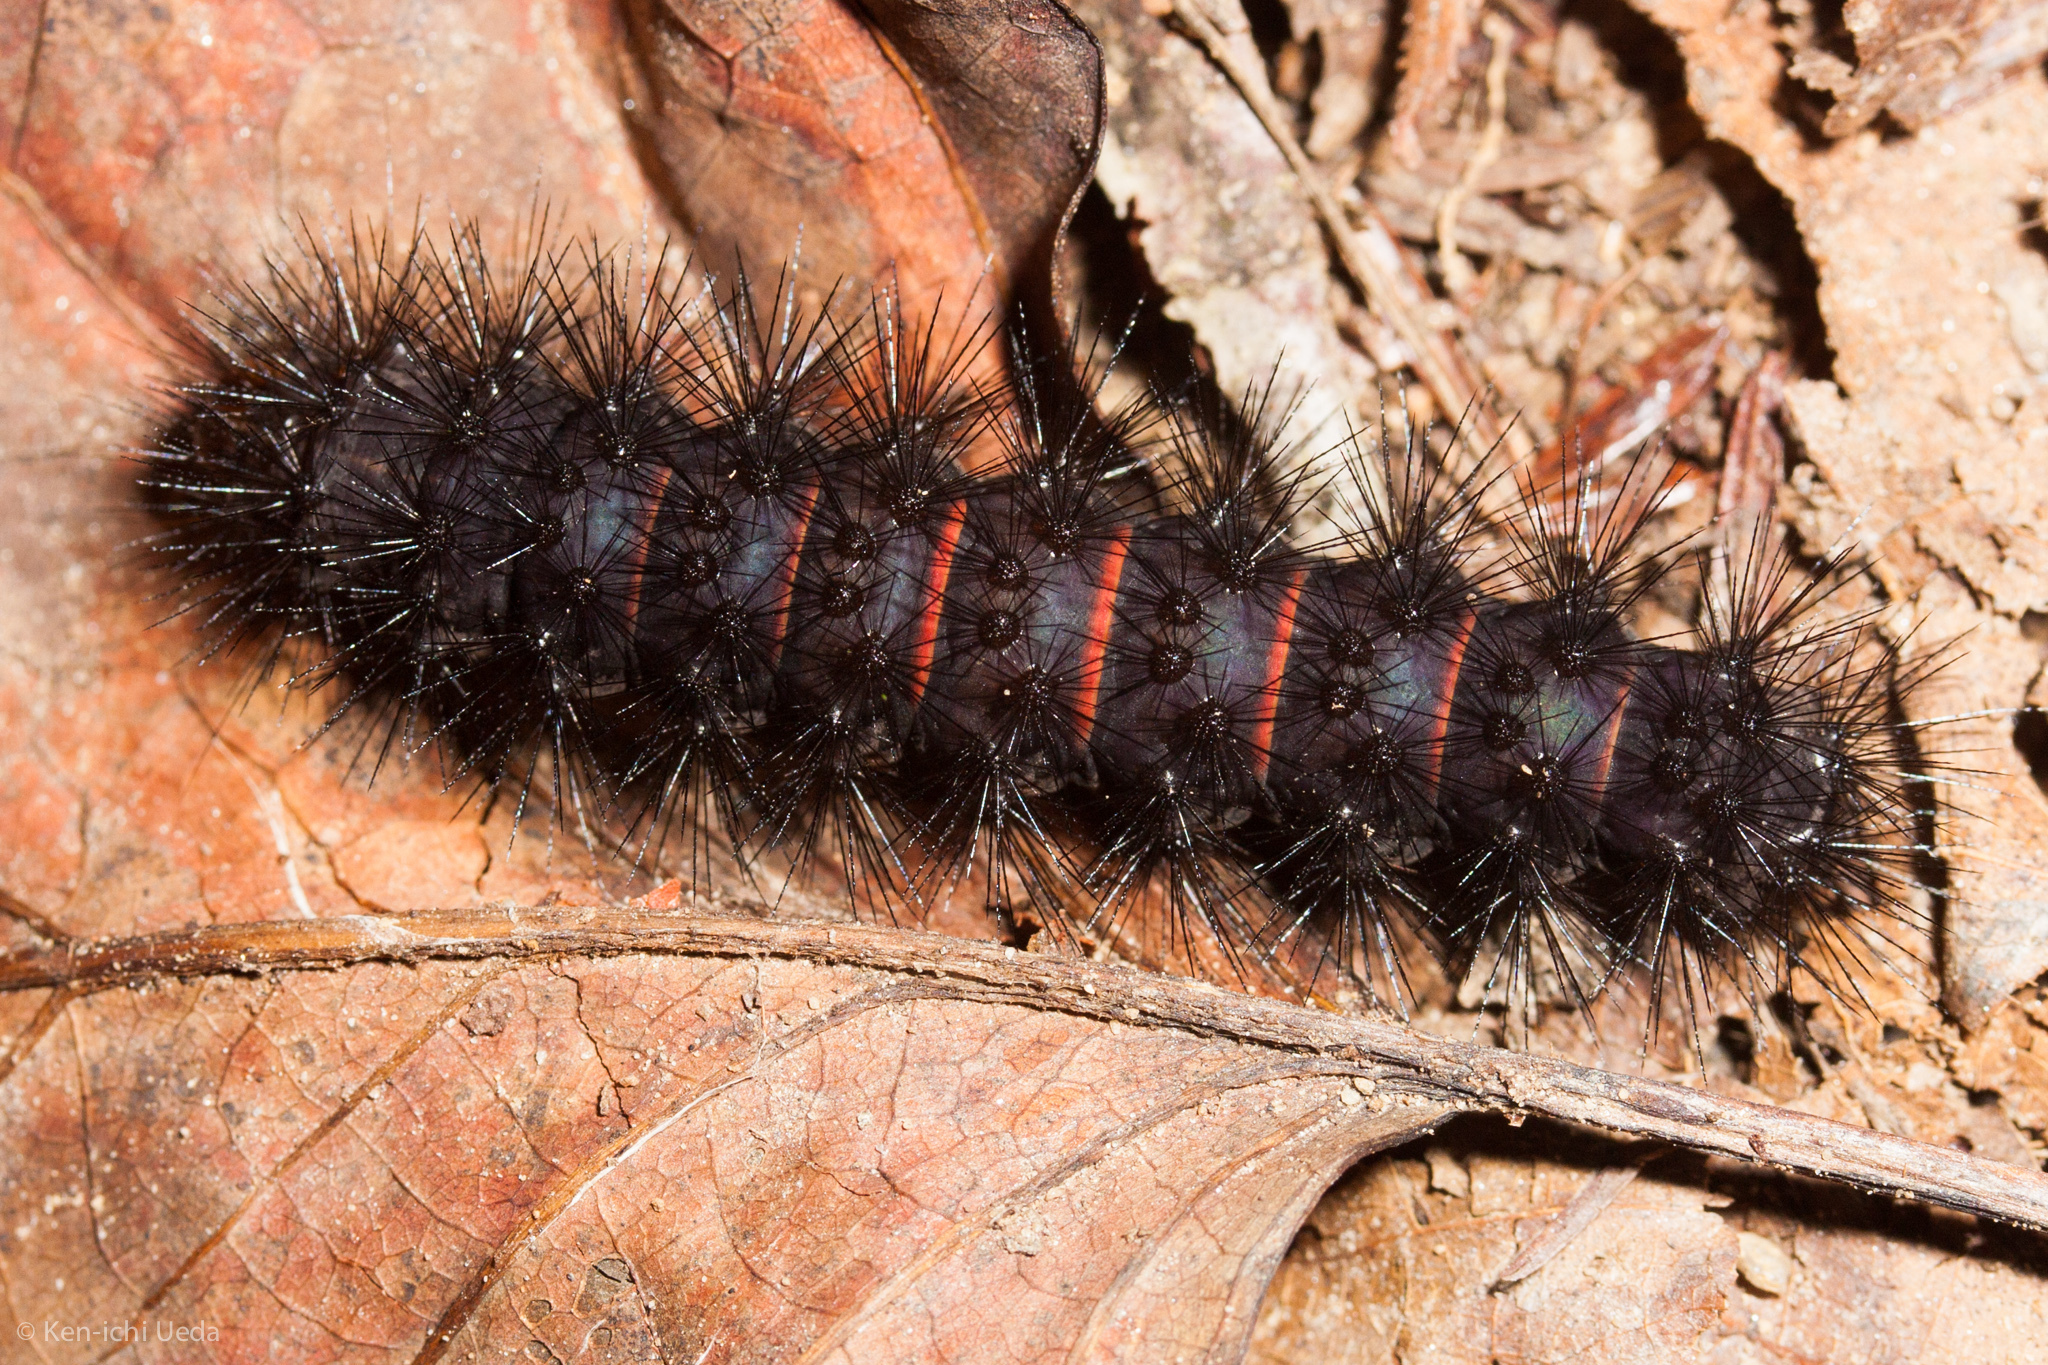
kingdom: Animalia
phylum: Arthropoda
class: Insecta
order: Lepidoptera
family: Erebidae
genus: Hypercompe
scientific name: Hypercompe scribonia
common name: Giant leopard moth
